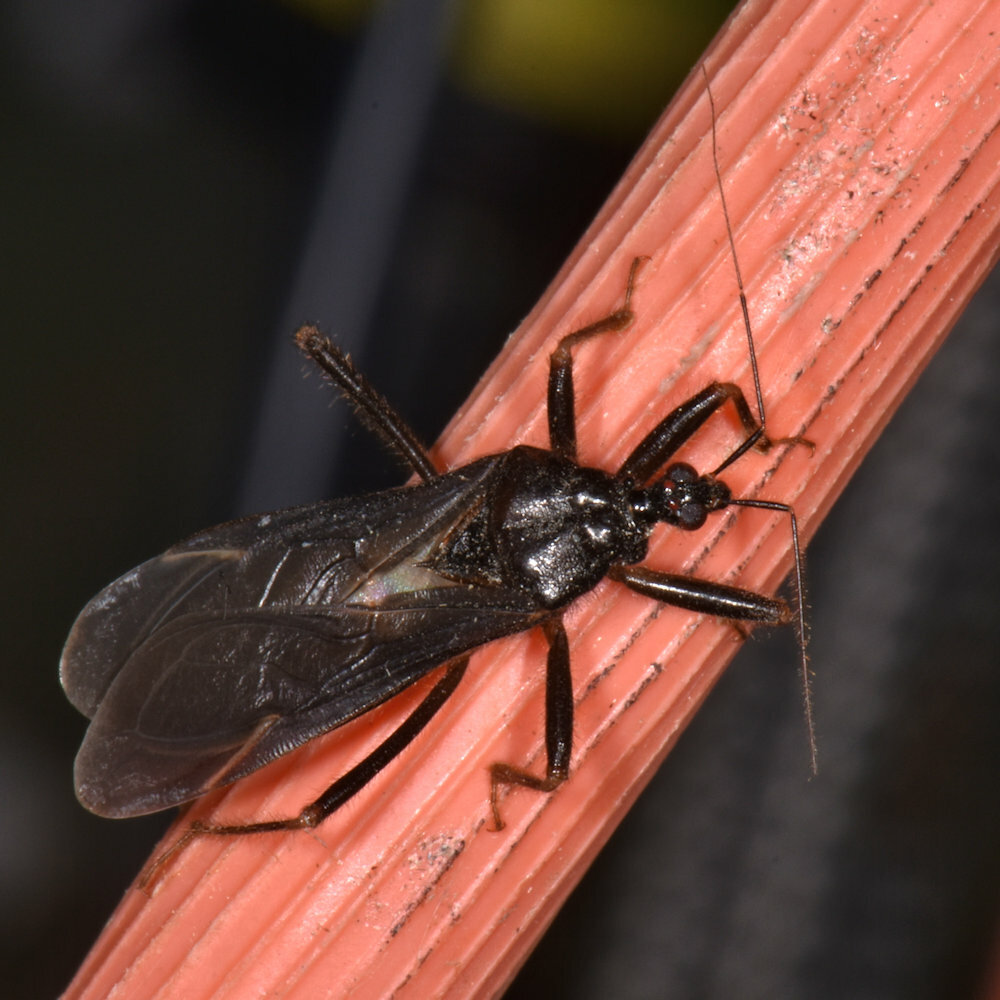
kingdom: Animalia
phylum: Arthropoda
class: Insecta
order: Hemiptera
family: Reduviidae
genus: Reduvius
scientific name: Reduvius personatus
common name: Masked hunter
